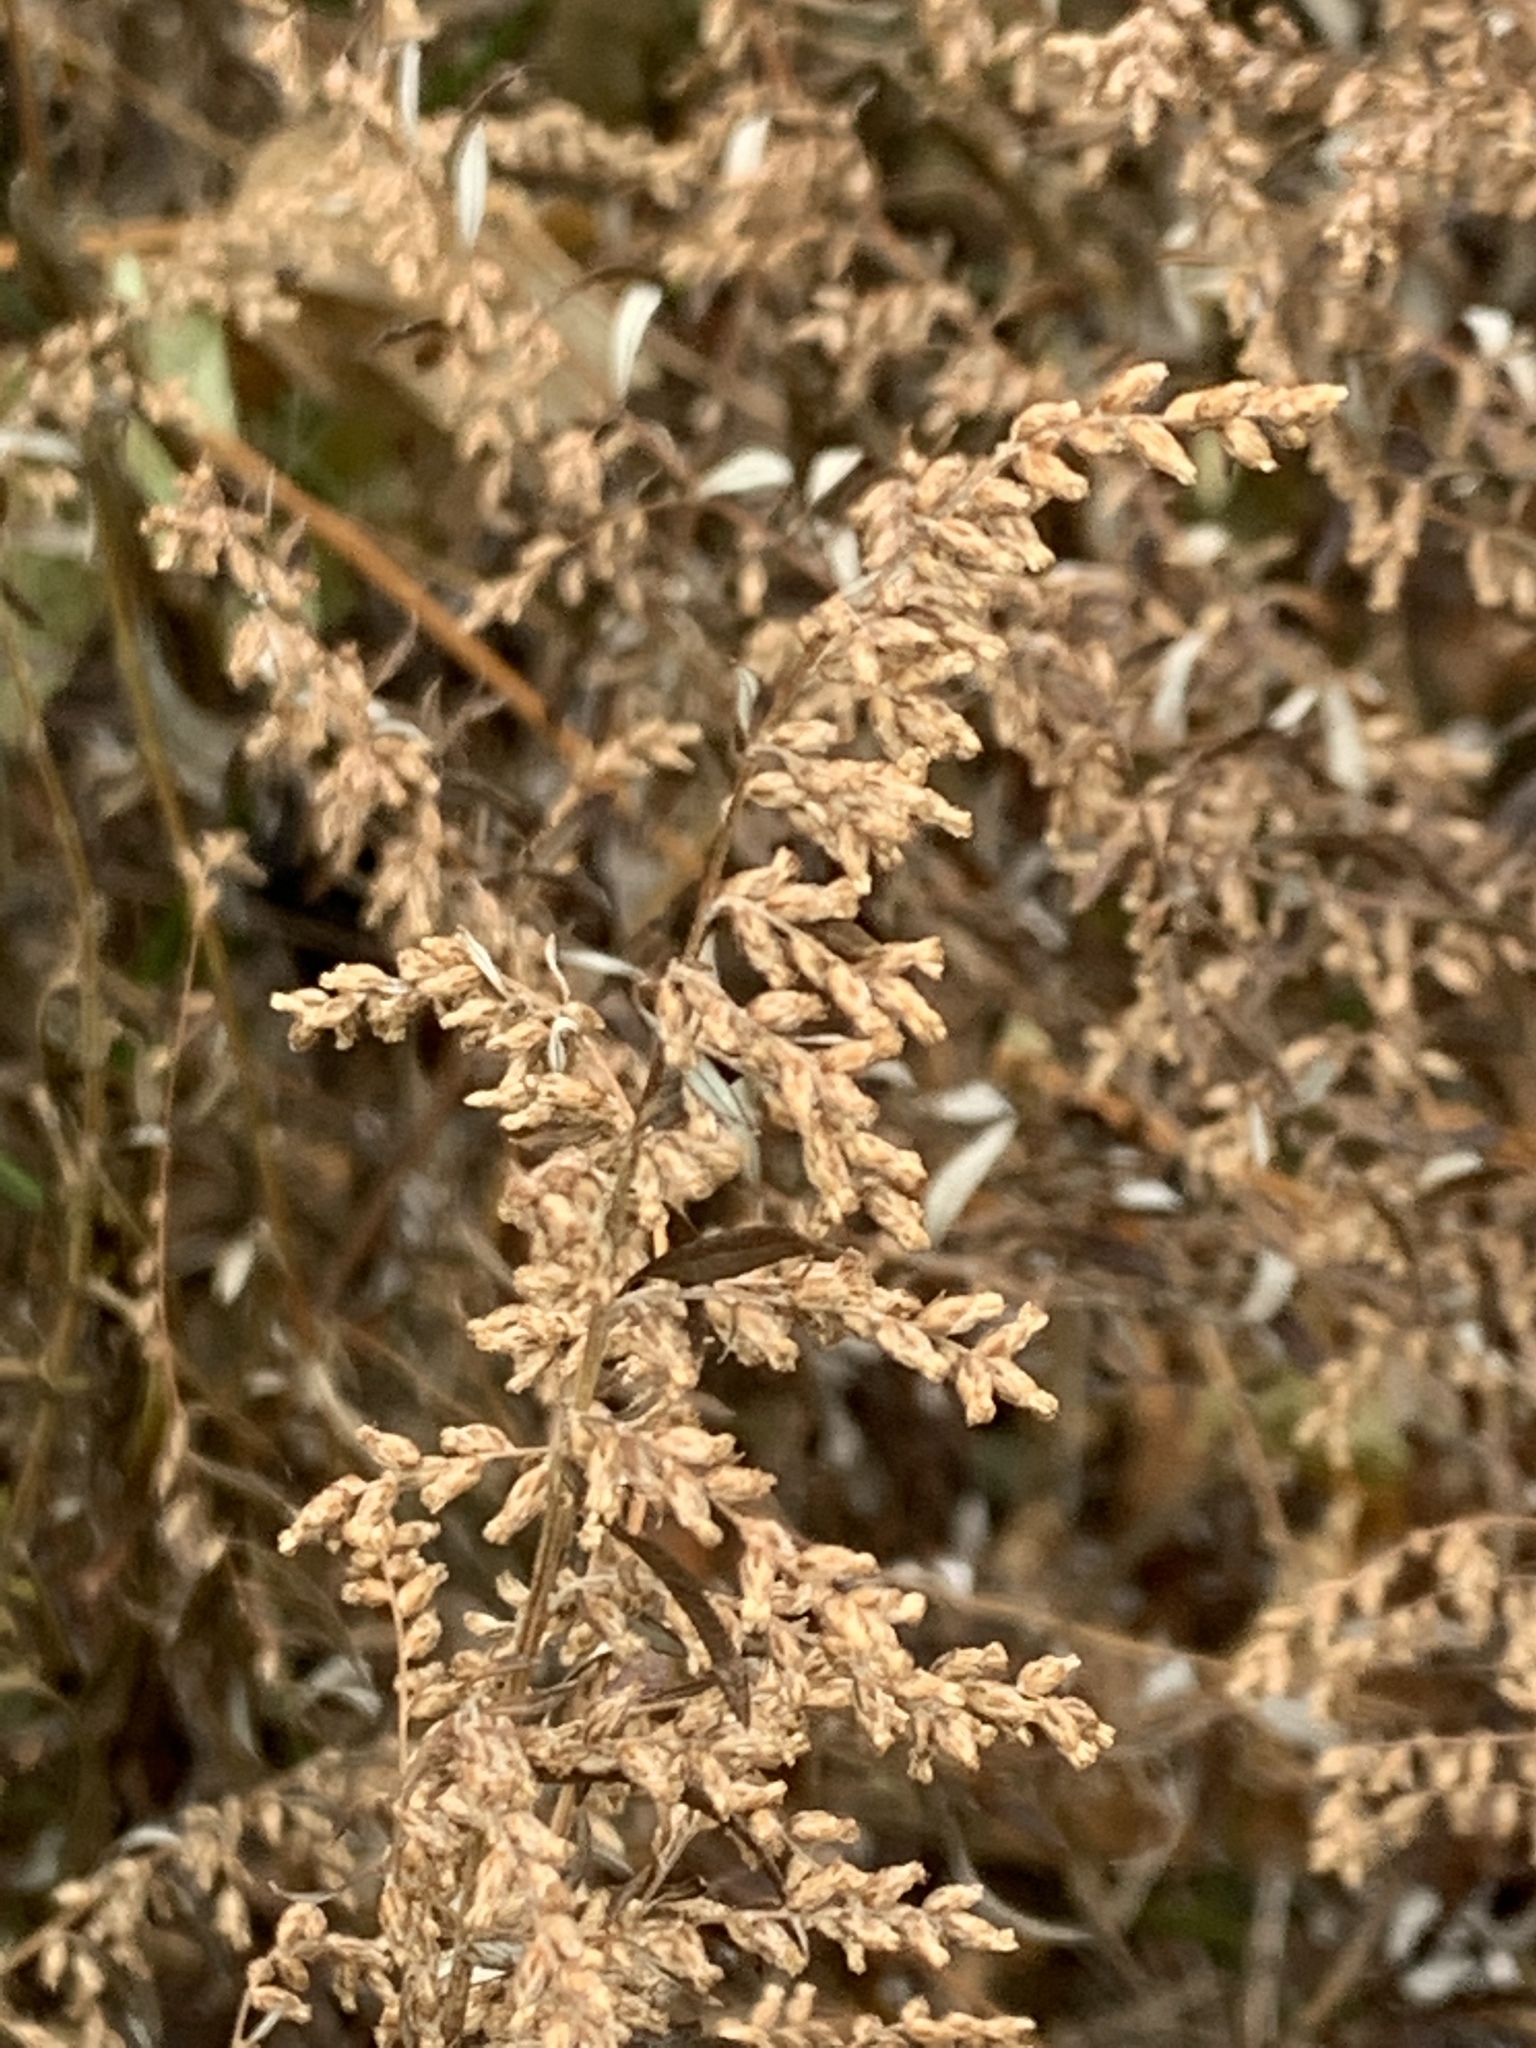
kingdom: Plantae
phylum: Tracheophyta
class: Magnoliopsida
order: Asterales
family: Asteraceae
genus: Artemisia
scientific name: Artemisia vulgaris
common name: Mugwort
